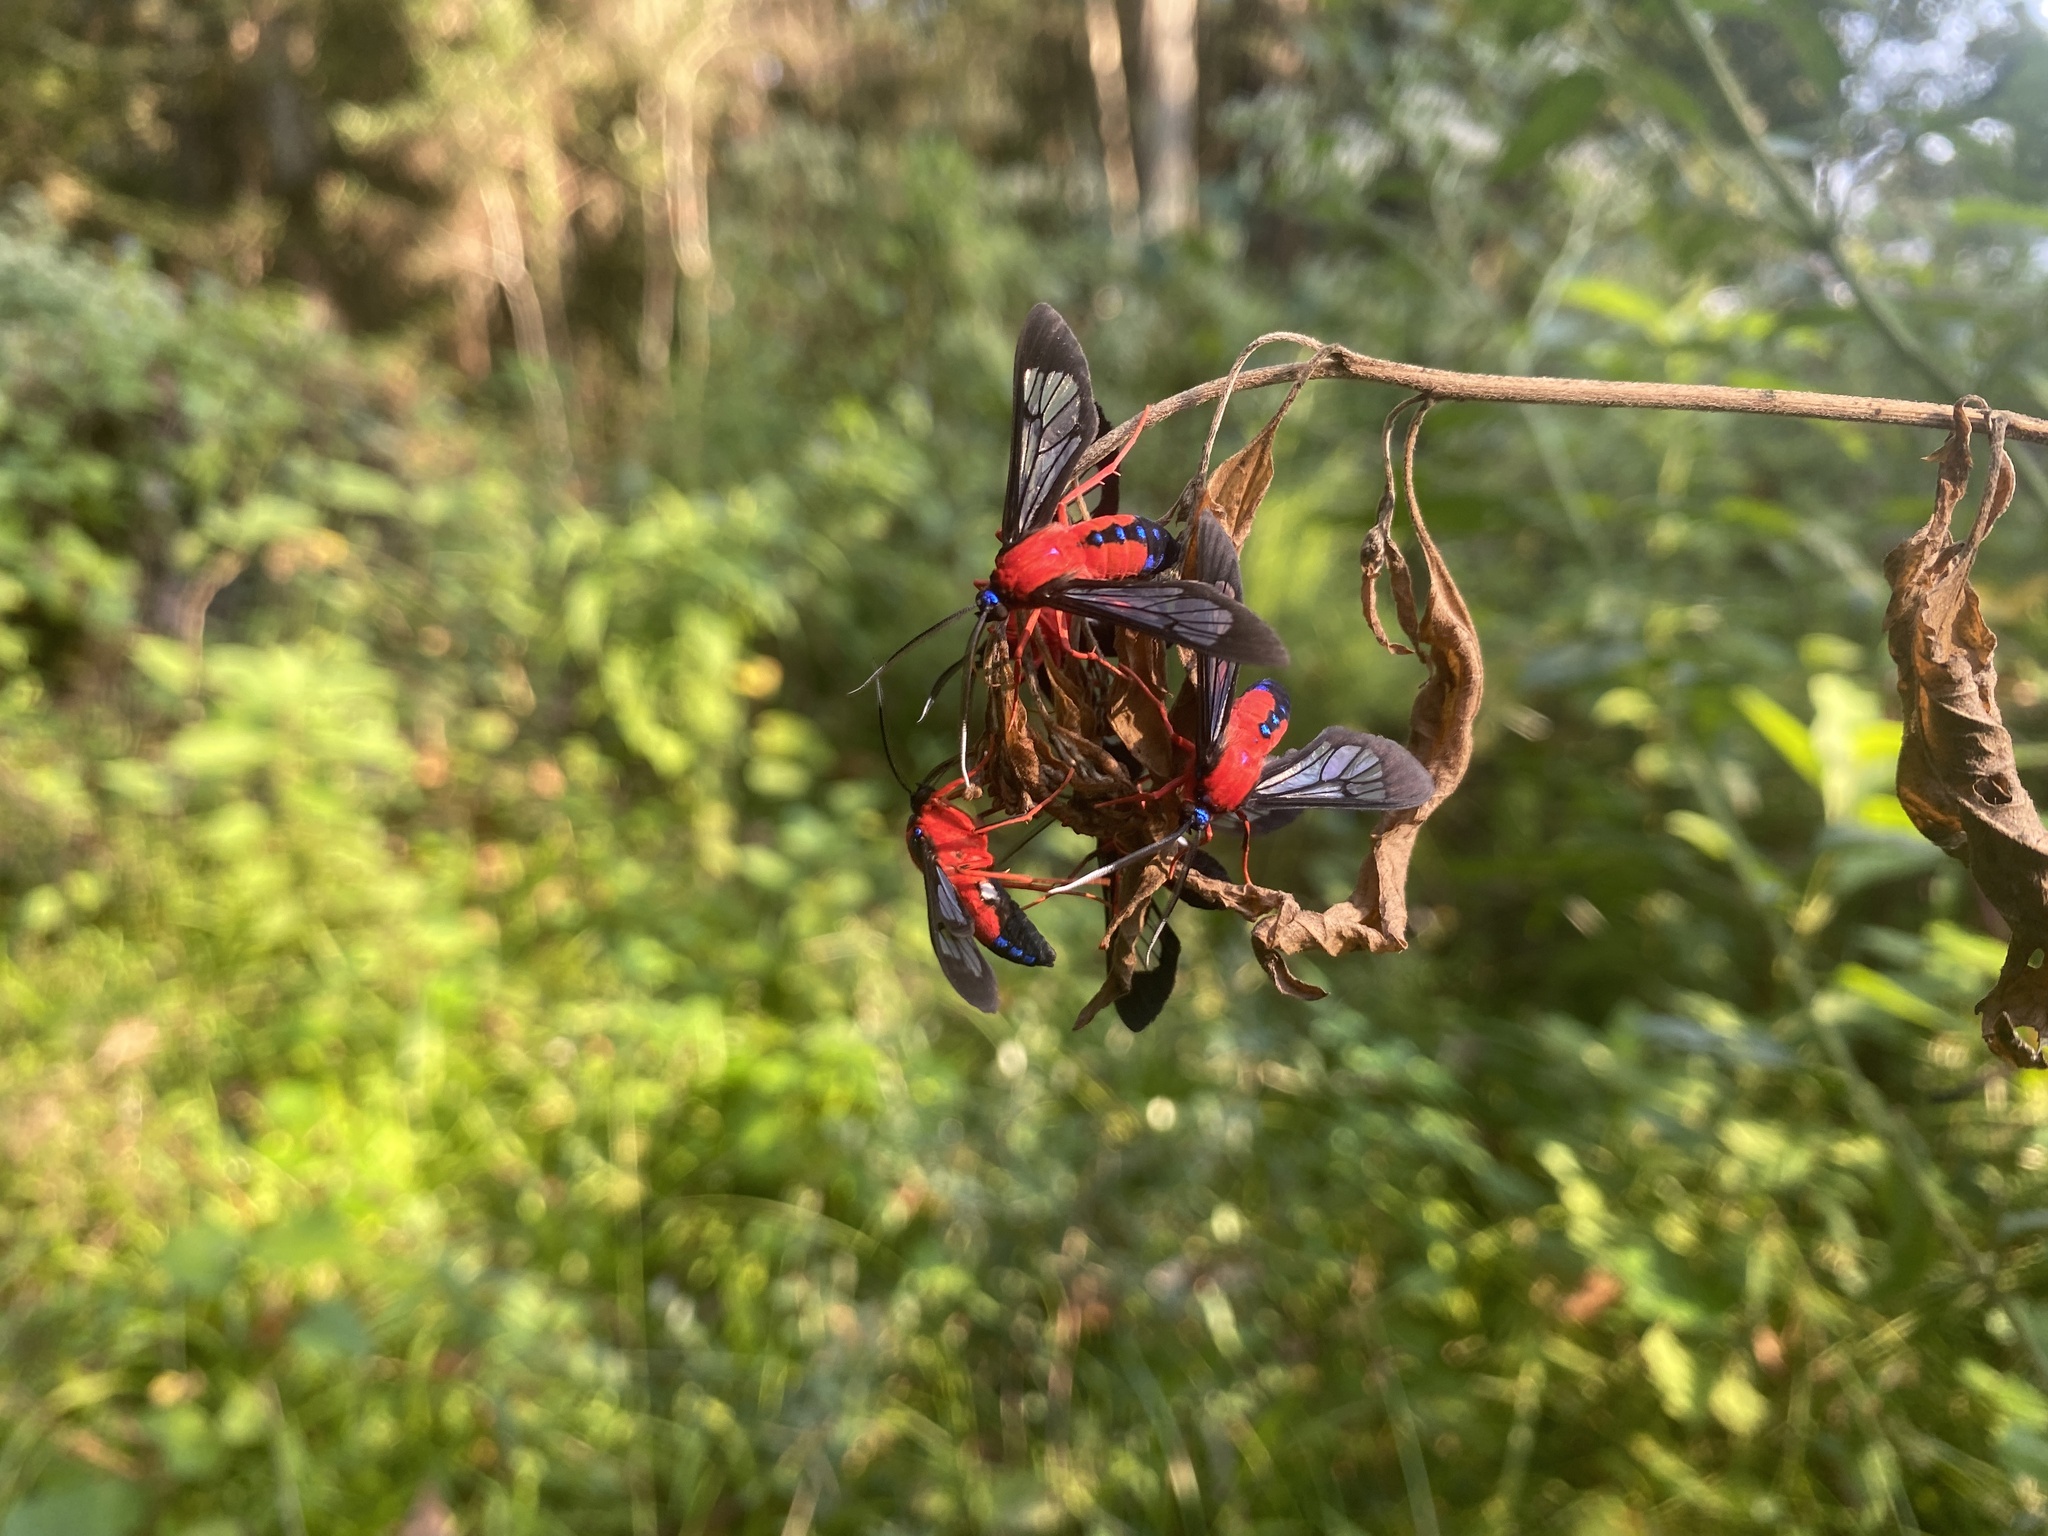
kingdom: Animalia
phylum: Arthropoda
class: Insecta
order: Lepidoptera
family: Erebidae
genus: Cosmosoma
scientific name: Cosmosoma myrodora
